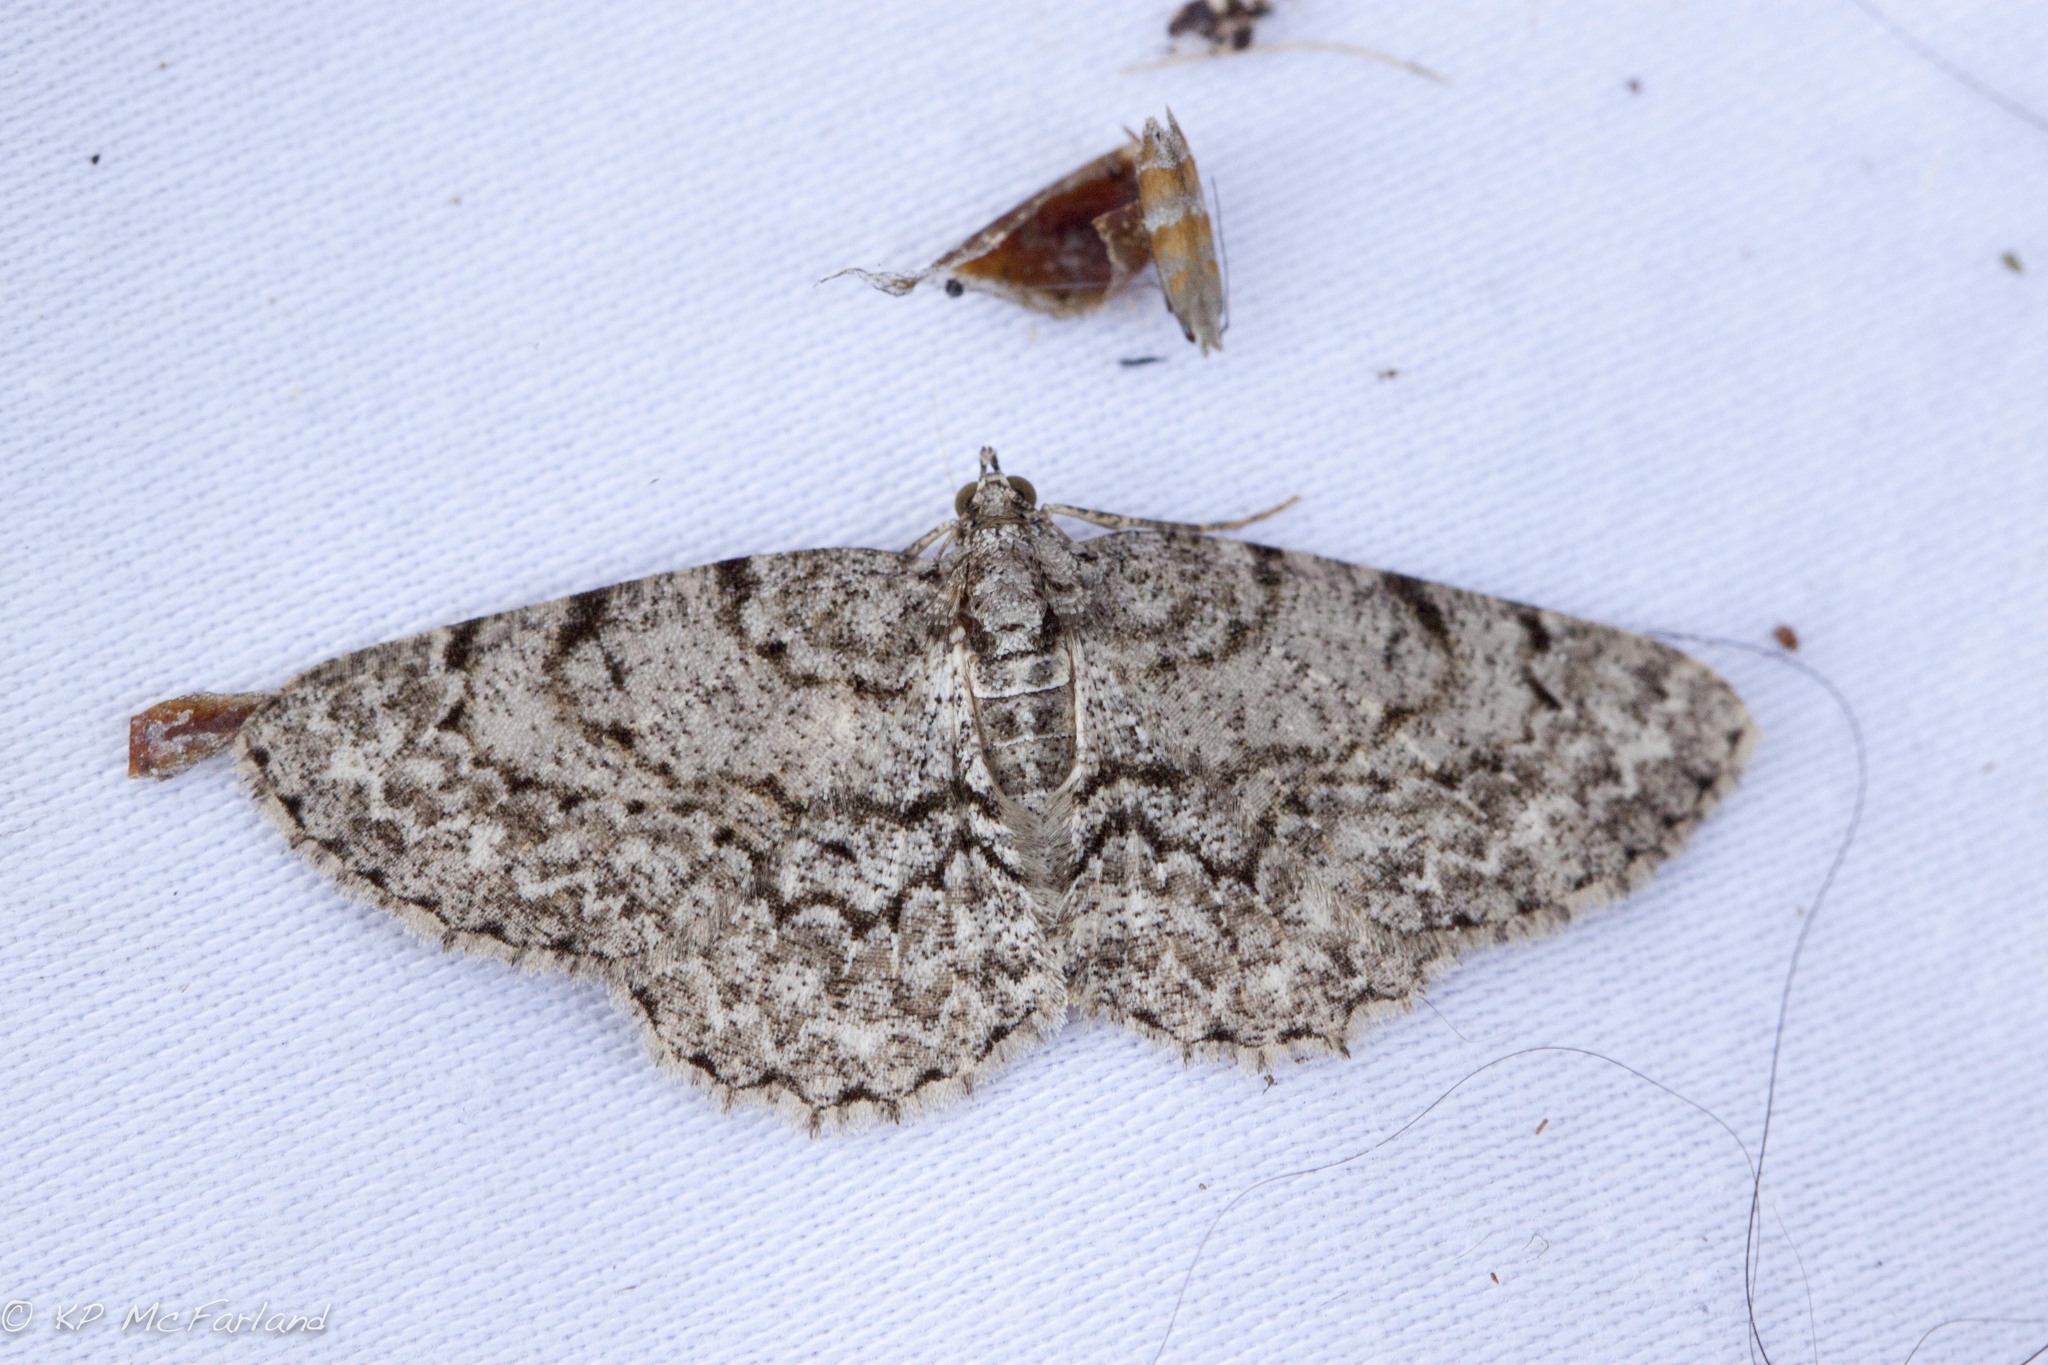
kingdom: Animalia
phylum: Arthropoda
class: Insecta
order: Lepidoptera
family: Geometridae
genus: Protoboarmia
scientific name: Protoboarmia porcelaria
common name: Porcelain gray
